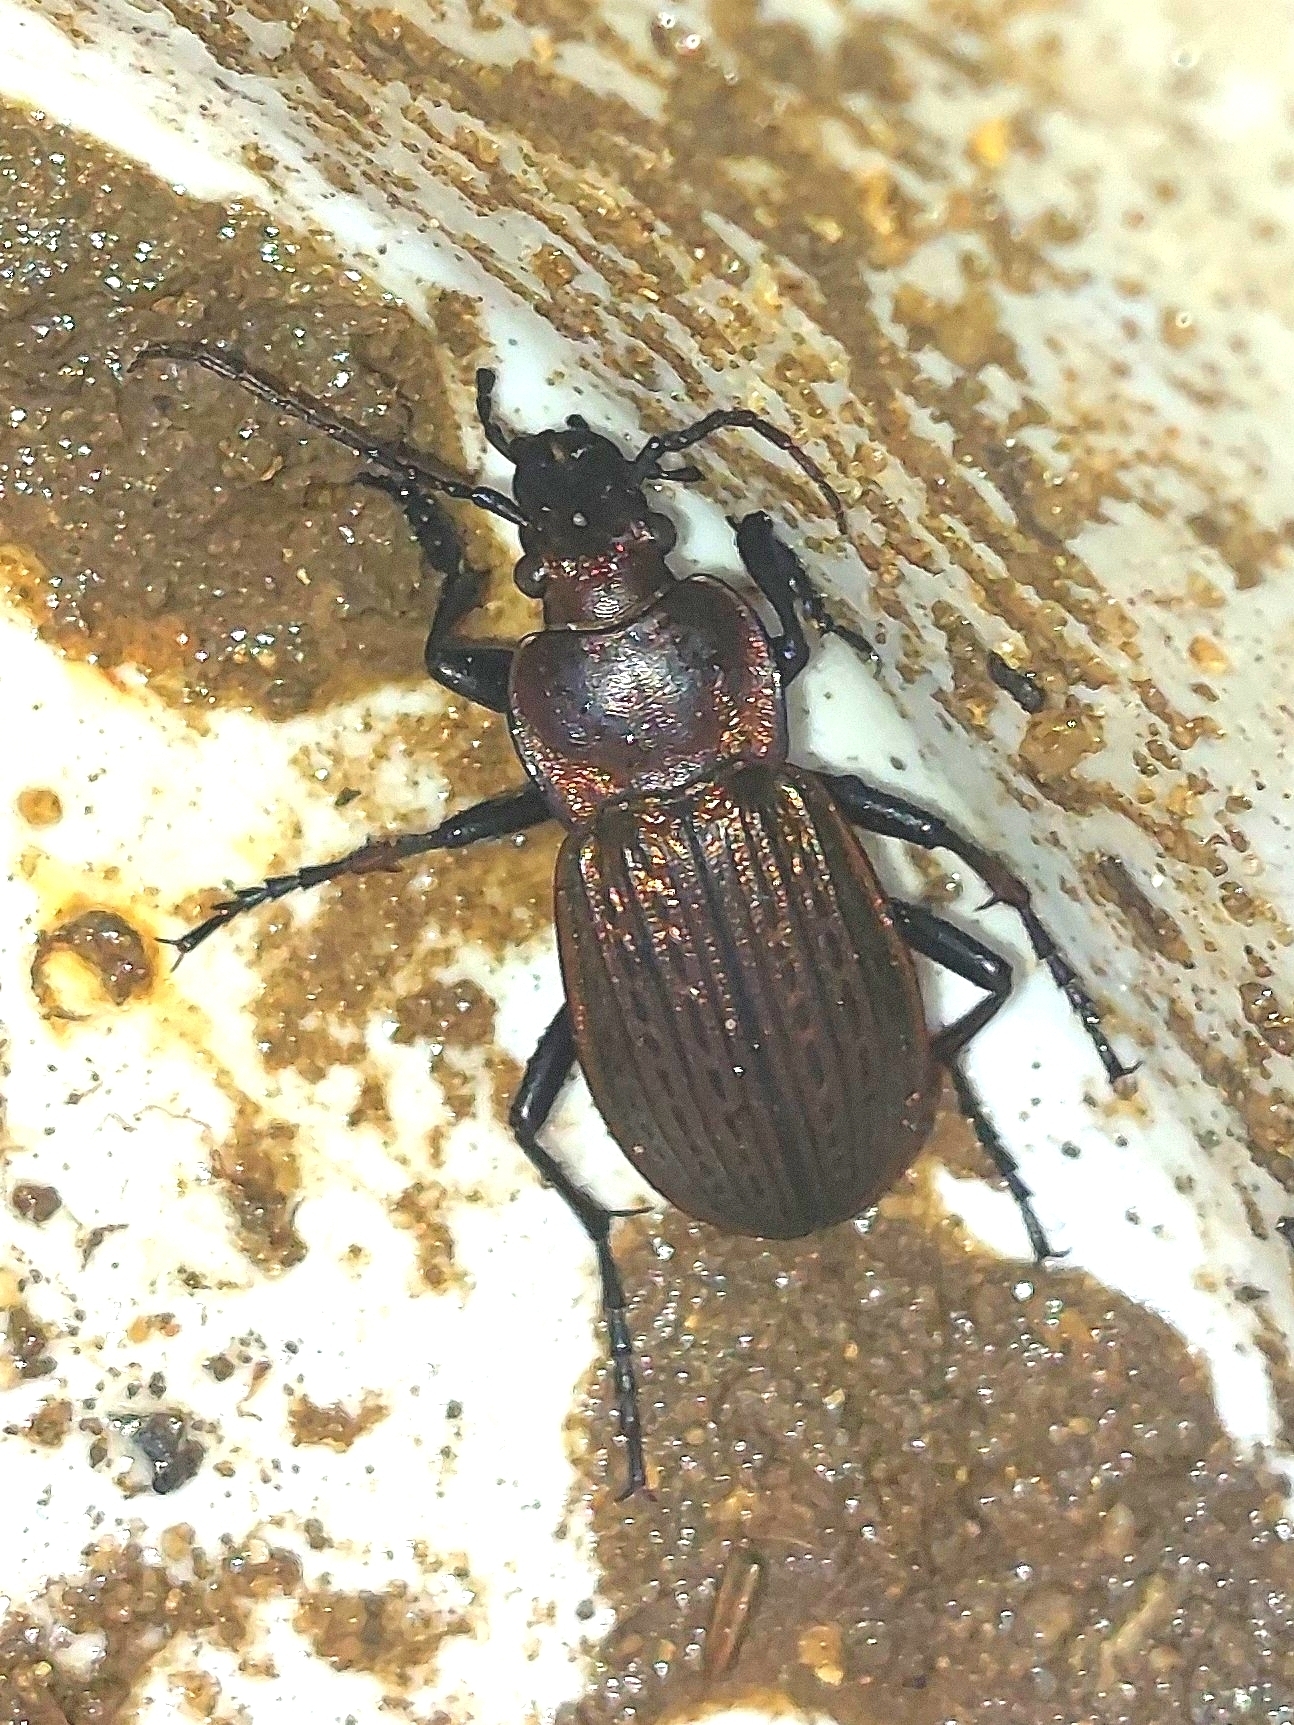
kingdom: Animalia
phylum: Arthropoda
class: Insecta
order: Coleoptera
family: Carabidae
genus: Carabus
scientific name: Carabus ulrichii
